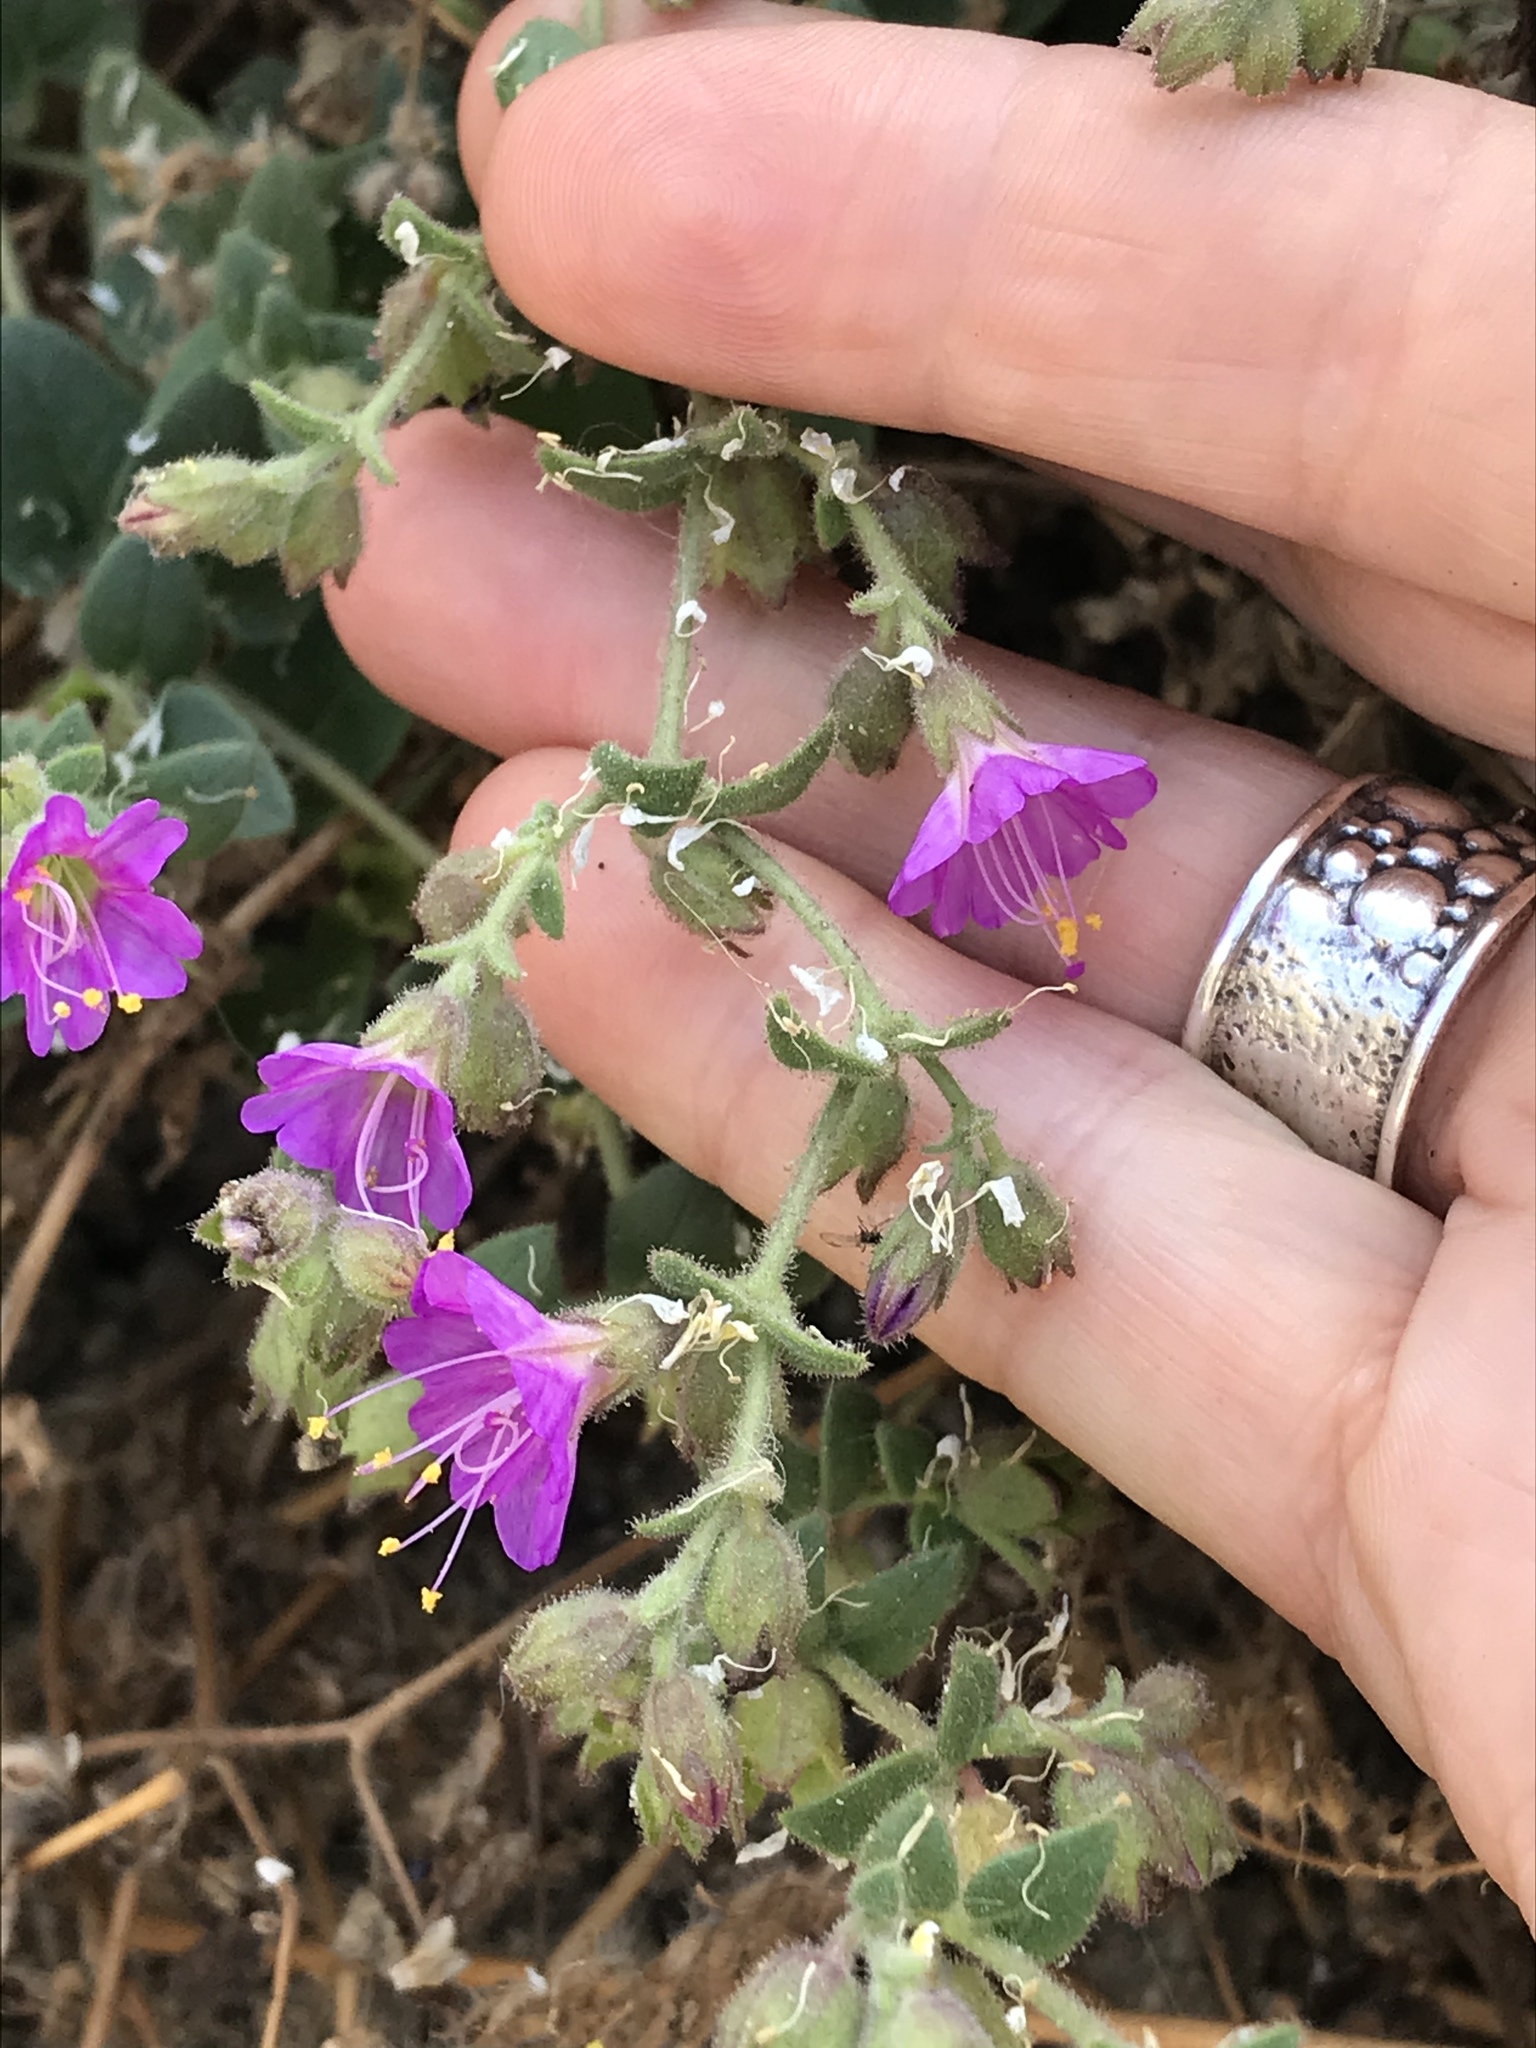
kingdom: Plantae
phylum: Tracheophyta
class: Magnoliopsida
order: Caryophyllales
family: Nyctaginaceae
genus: Mirabilis
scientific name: Mirabilis laevis
